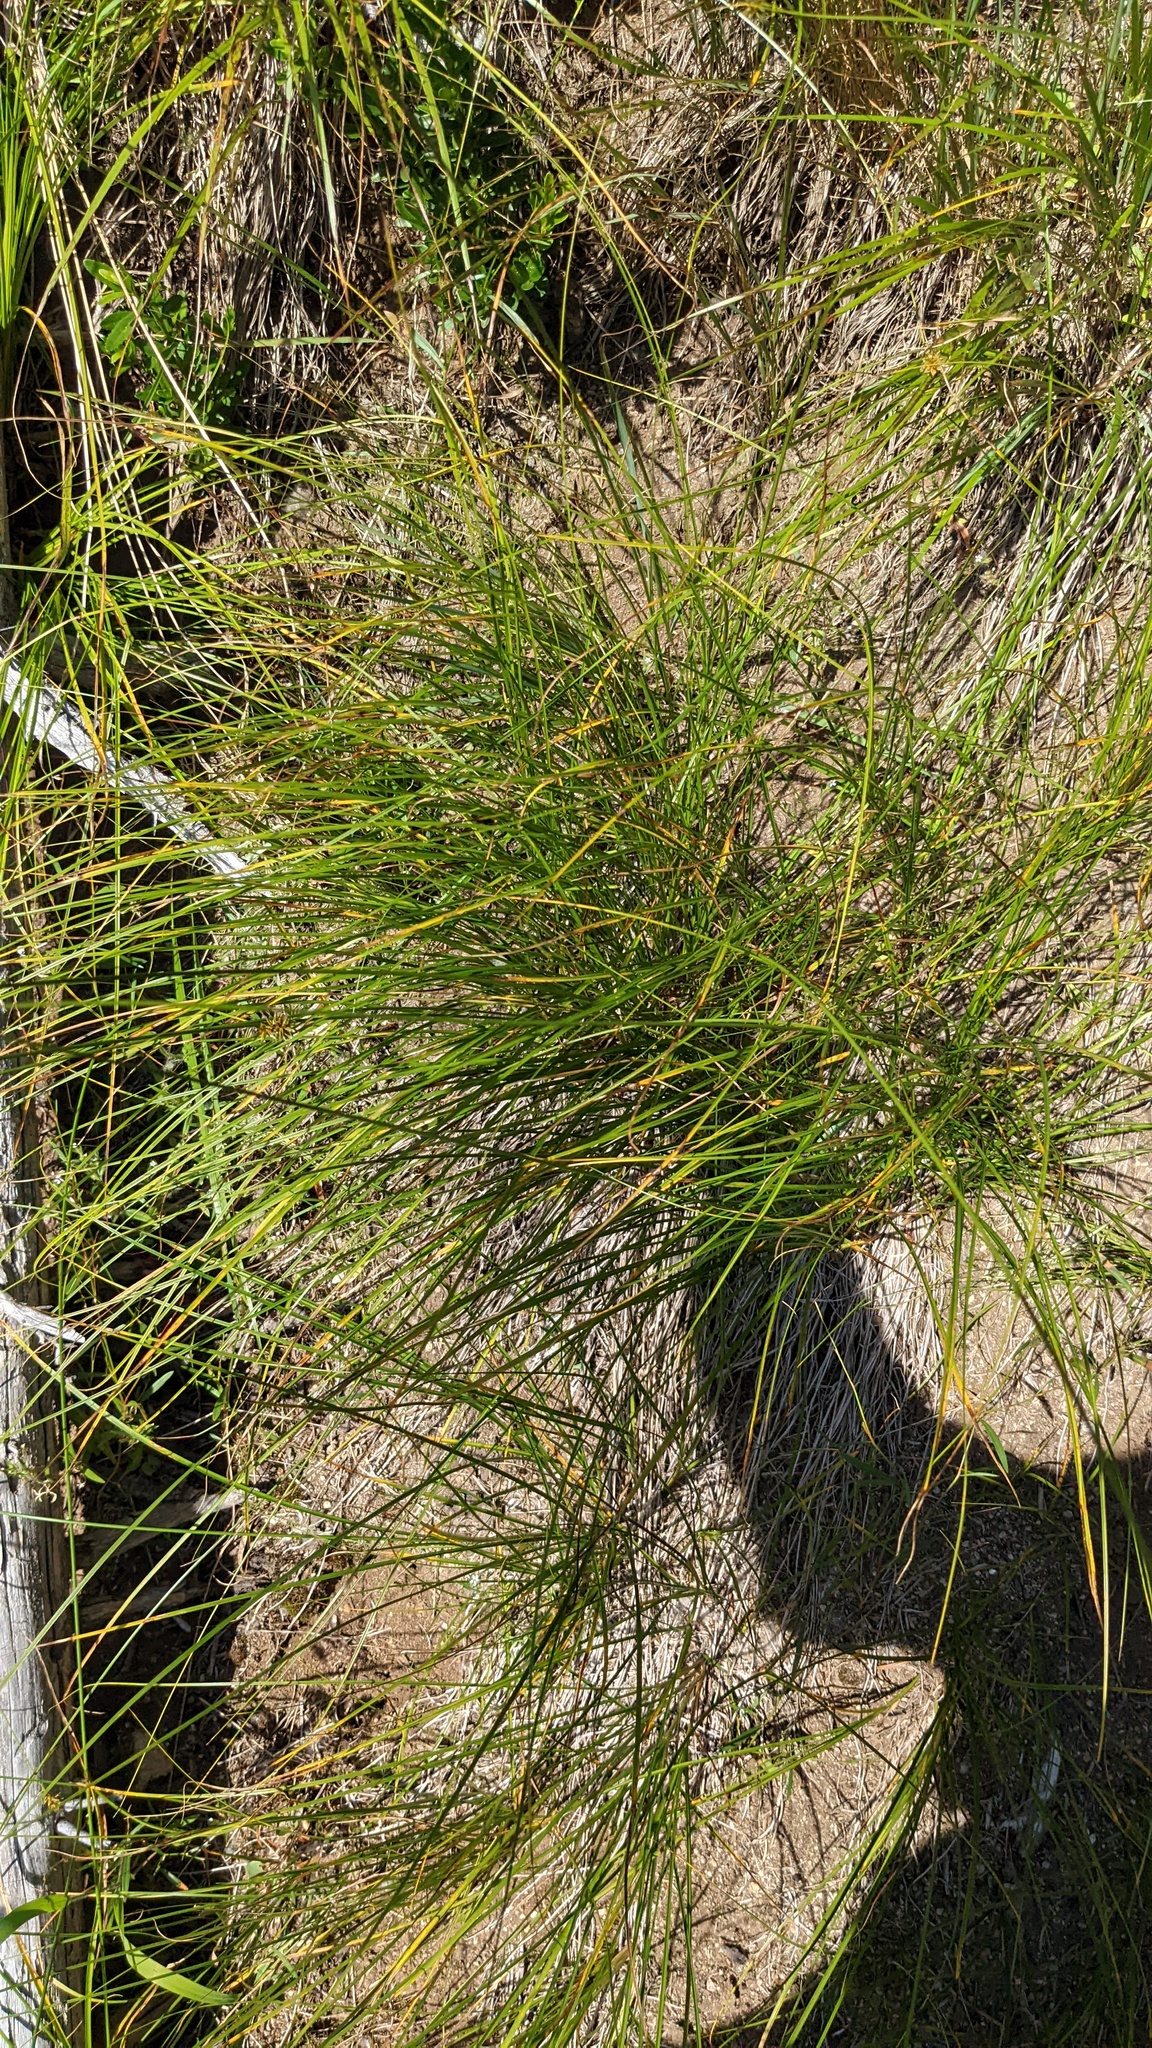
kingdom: Plantae
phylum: Tracheophyta
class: Liliopsida
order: Poales
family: Cyperaceae
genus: Carex
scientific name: Carex hoodii
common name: Hood's sedge
